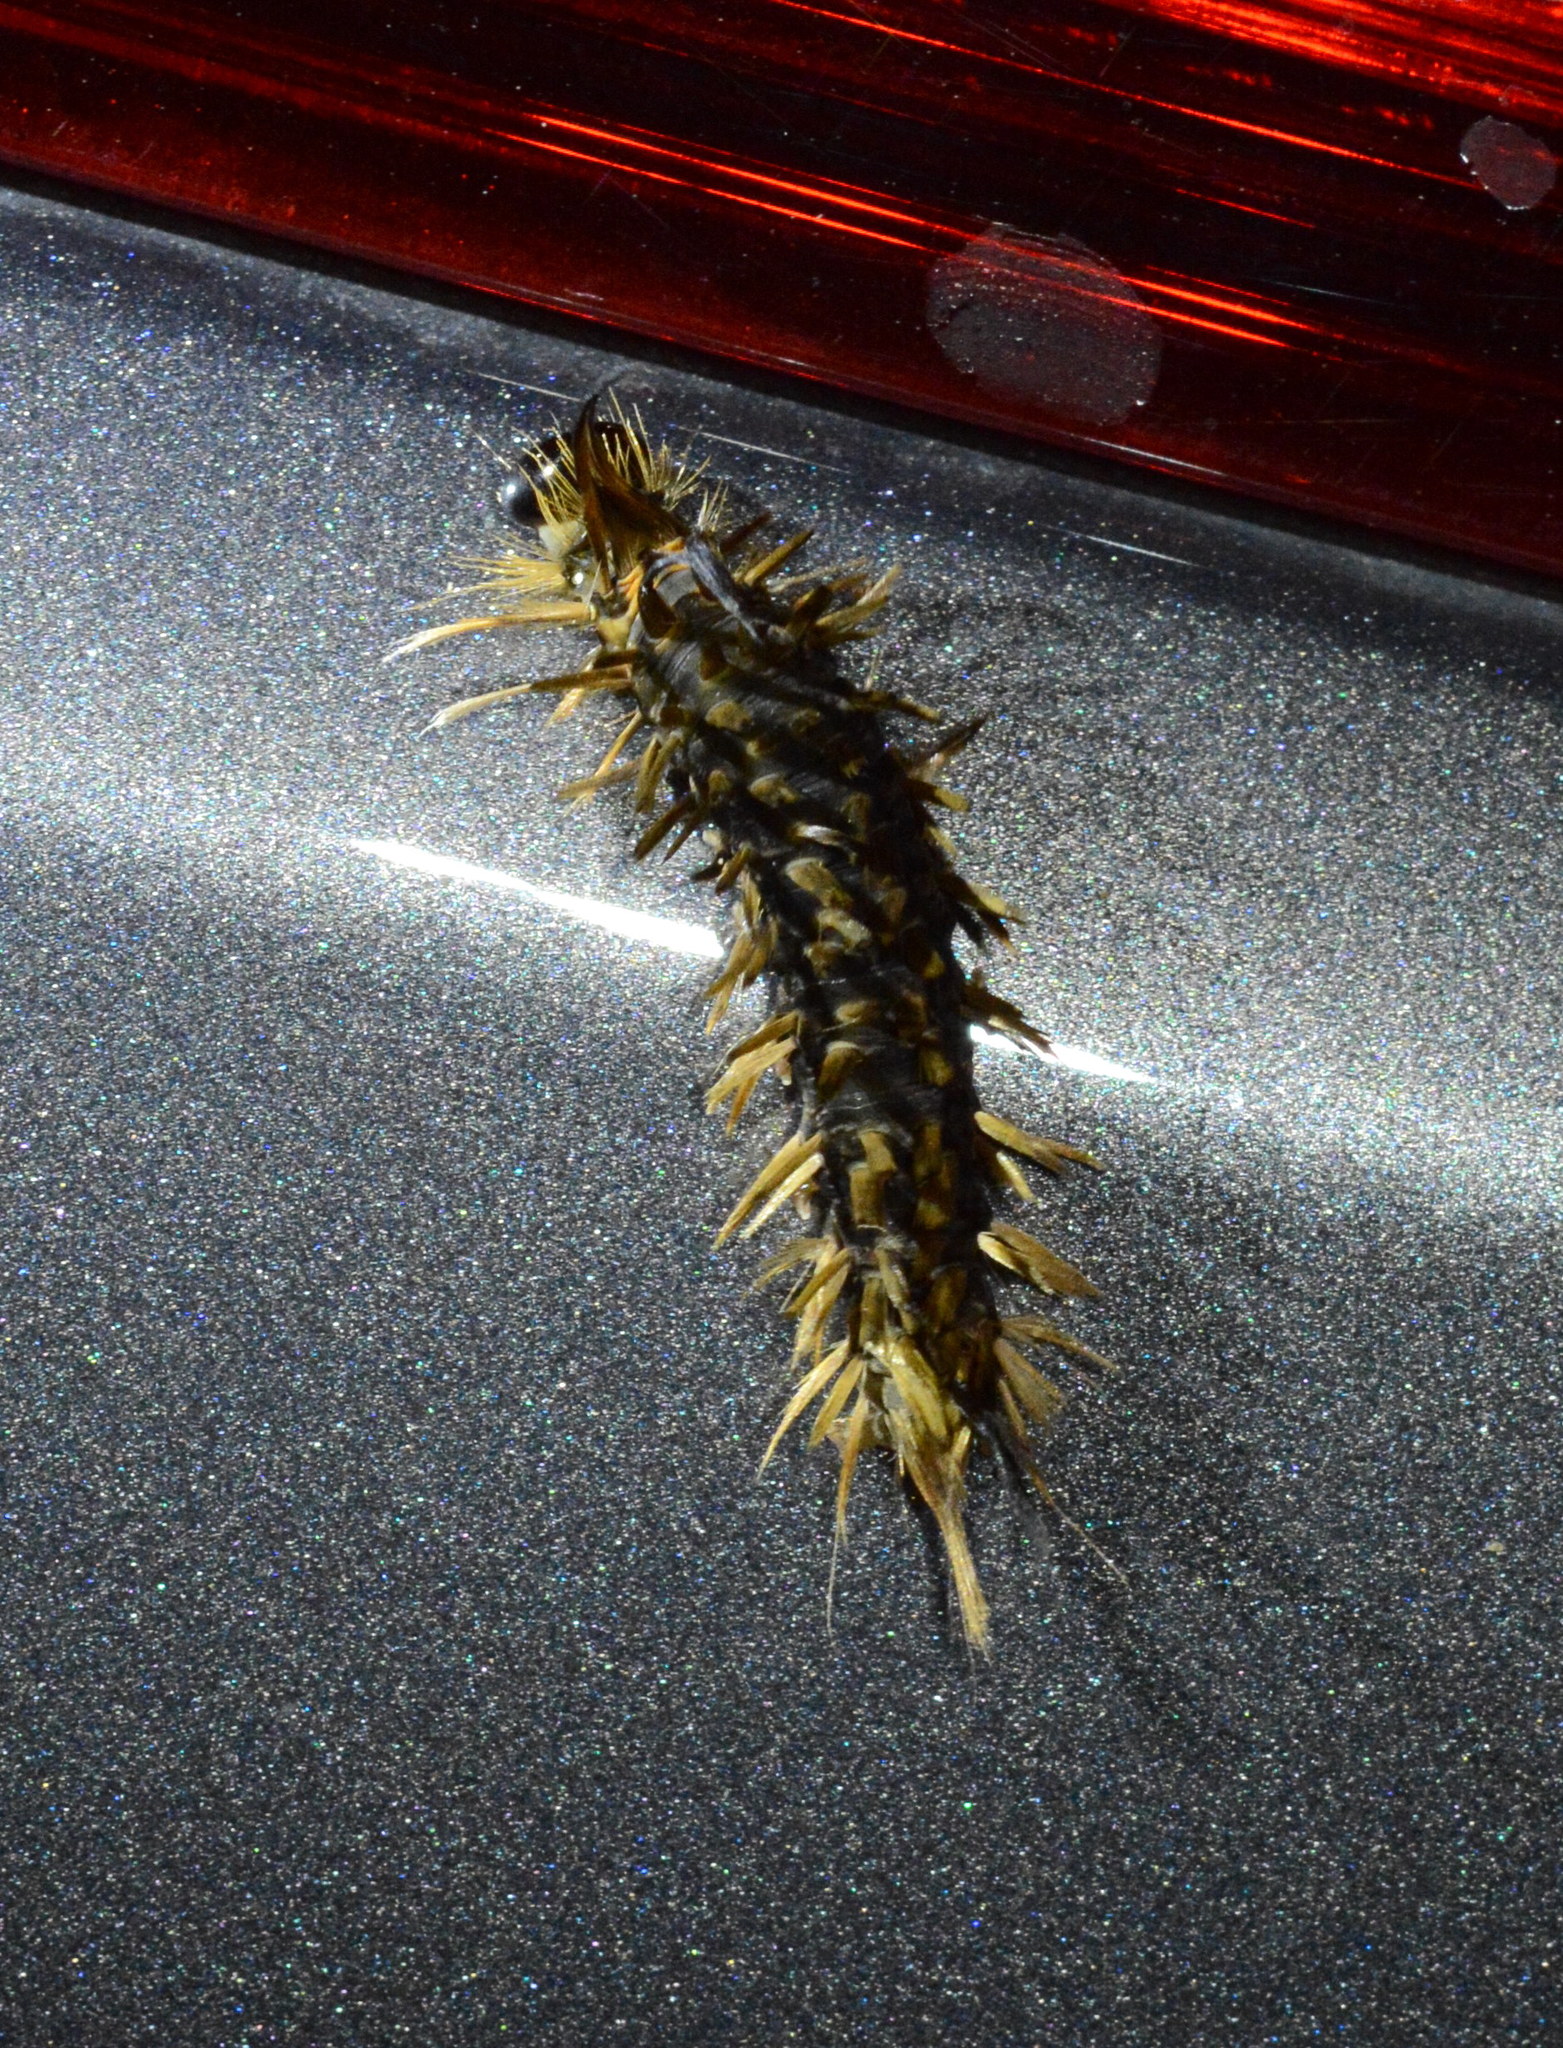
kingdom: Animalia
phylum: Arthropoda
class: Insecta
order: Lepidoptera
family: Erebidae
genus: Halysidota
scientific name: Halysidota tessellaris
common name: Banded tussock moth
